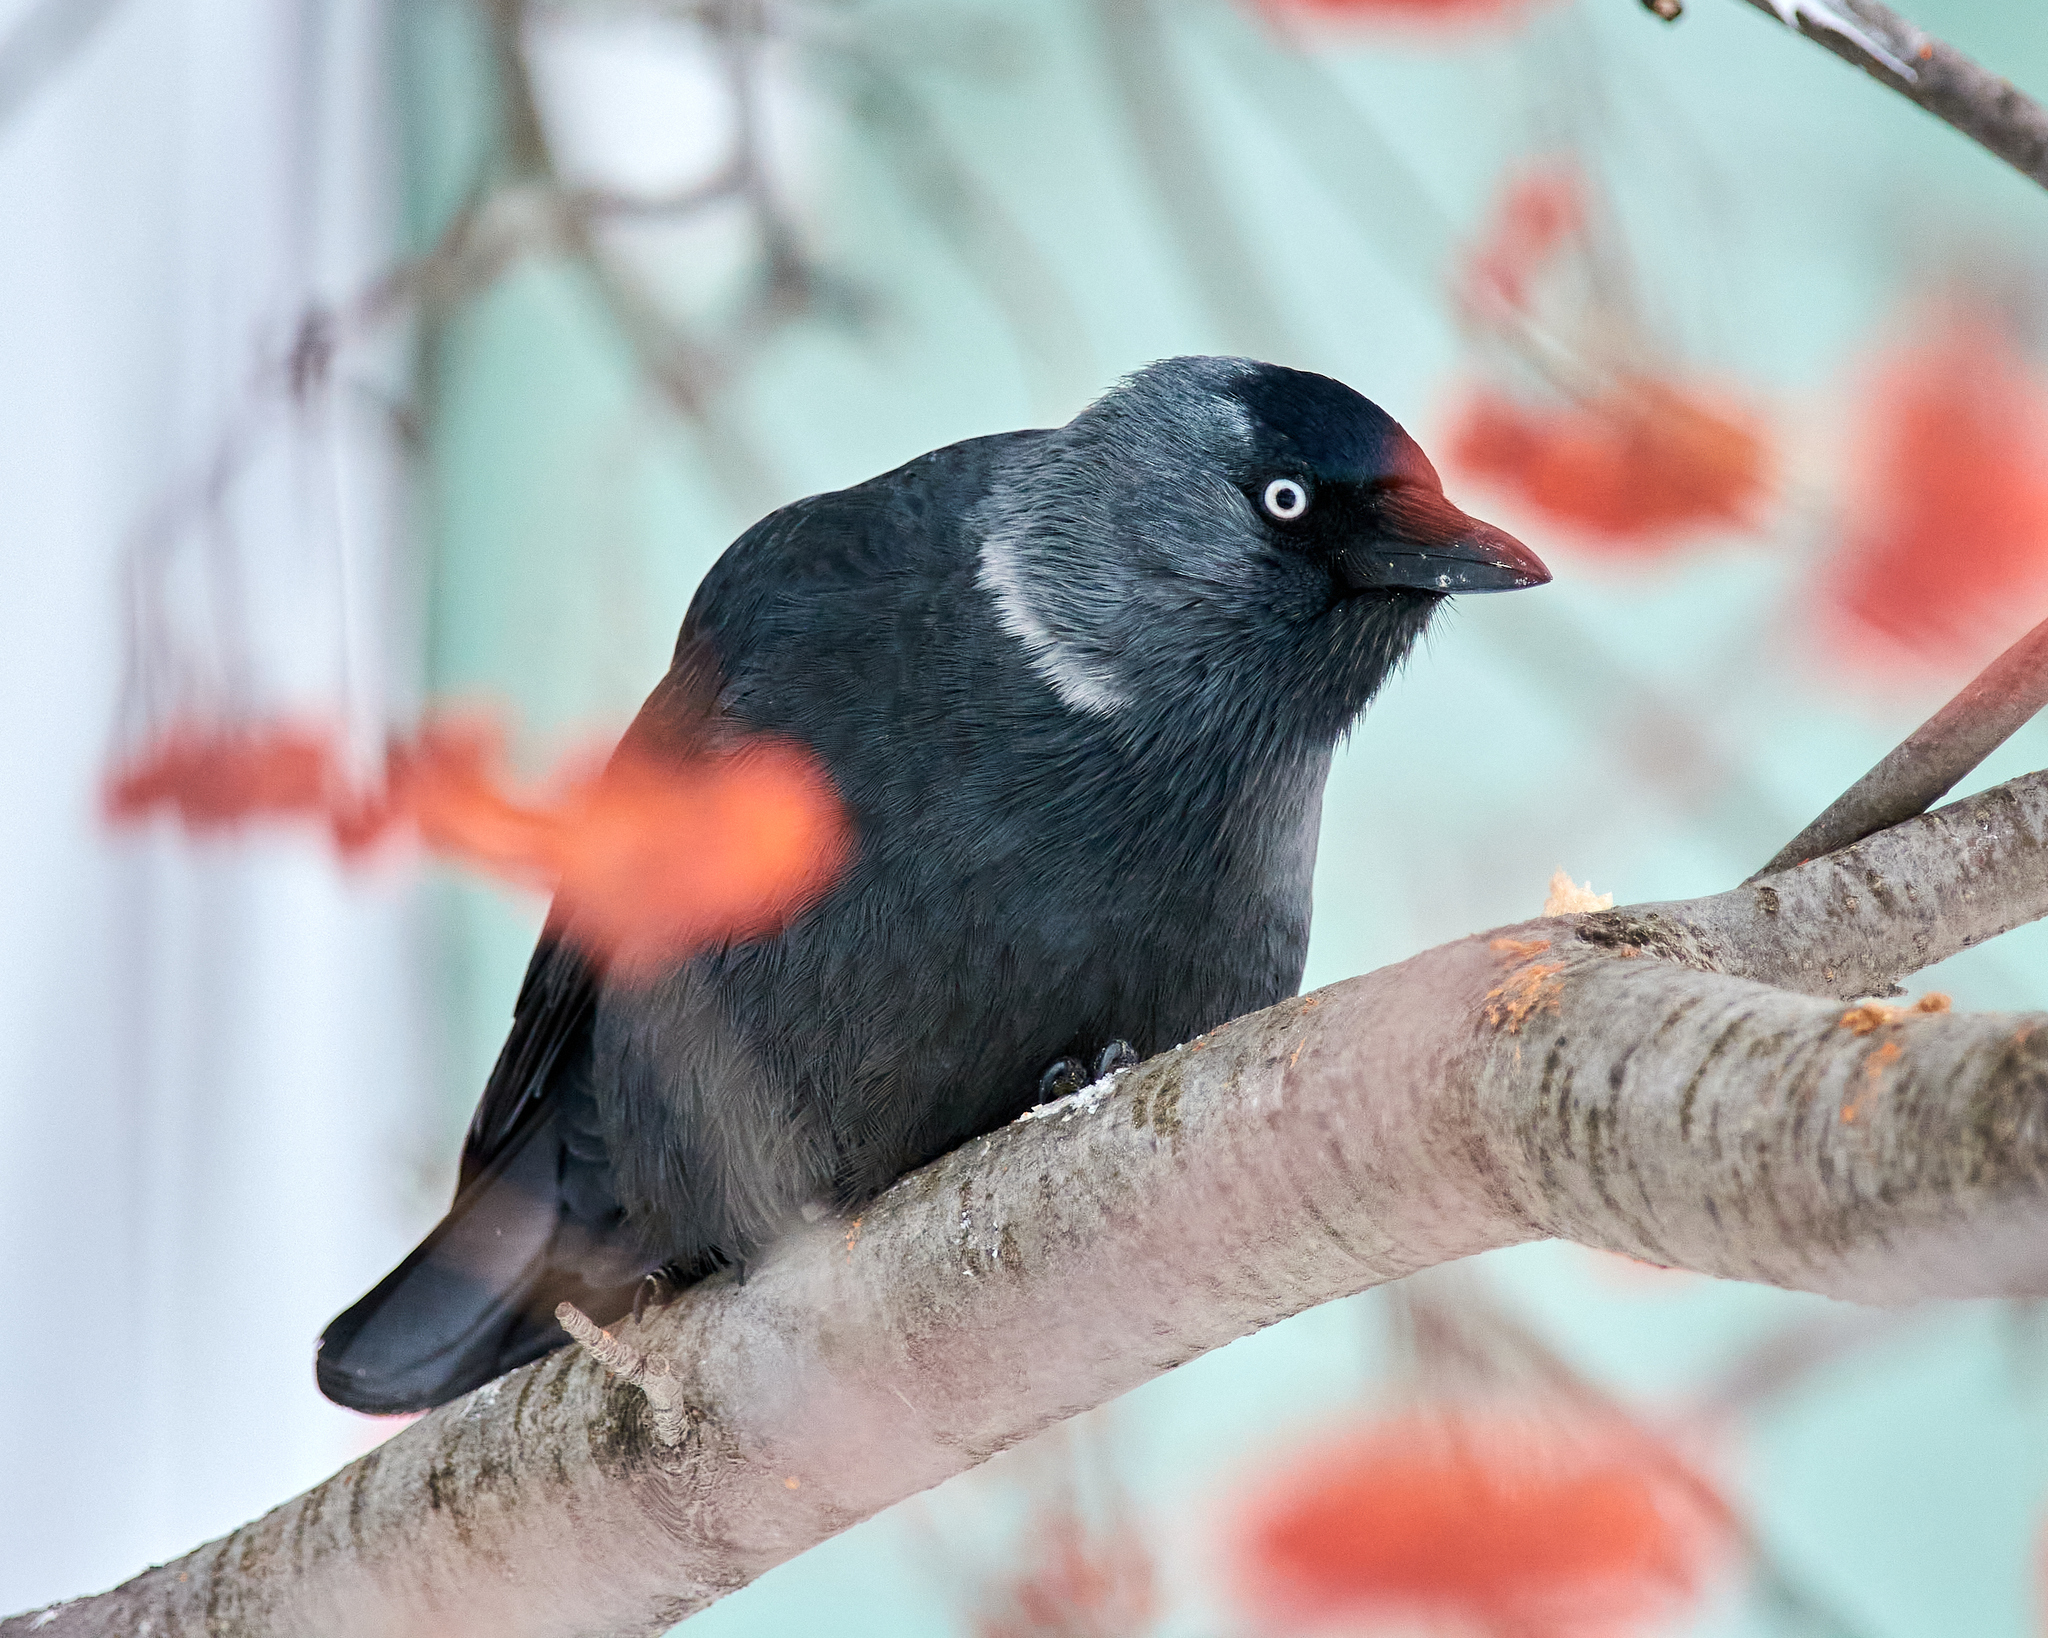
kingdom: Animalia
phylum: Chordata
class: Aves
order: Passeriformes
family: Corvidae
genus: Coloeus
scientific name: Coloeus monedula
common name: Western jackdaw
